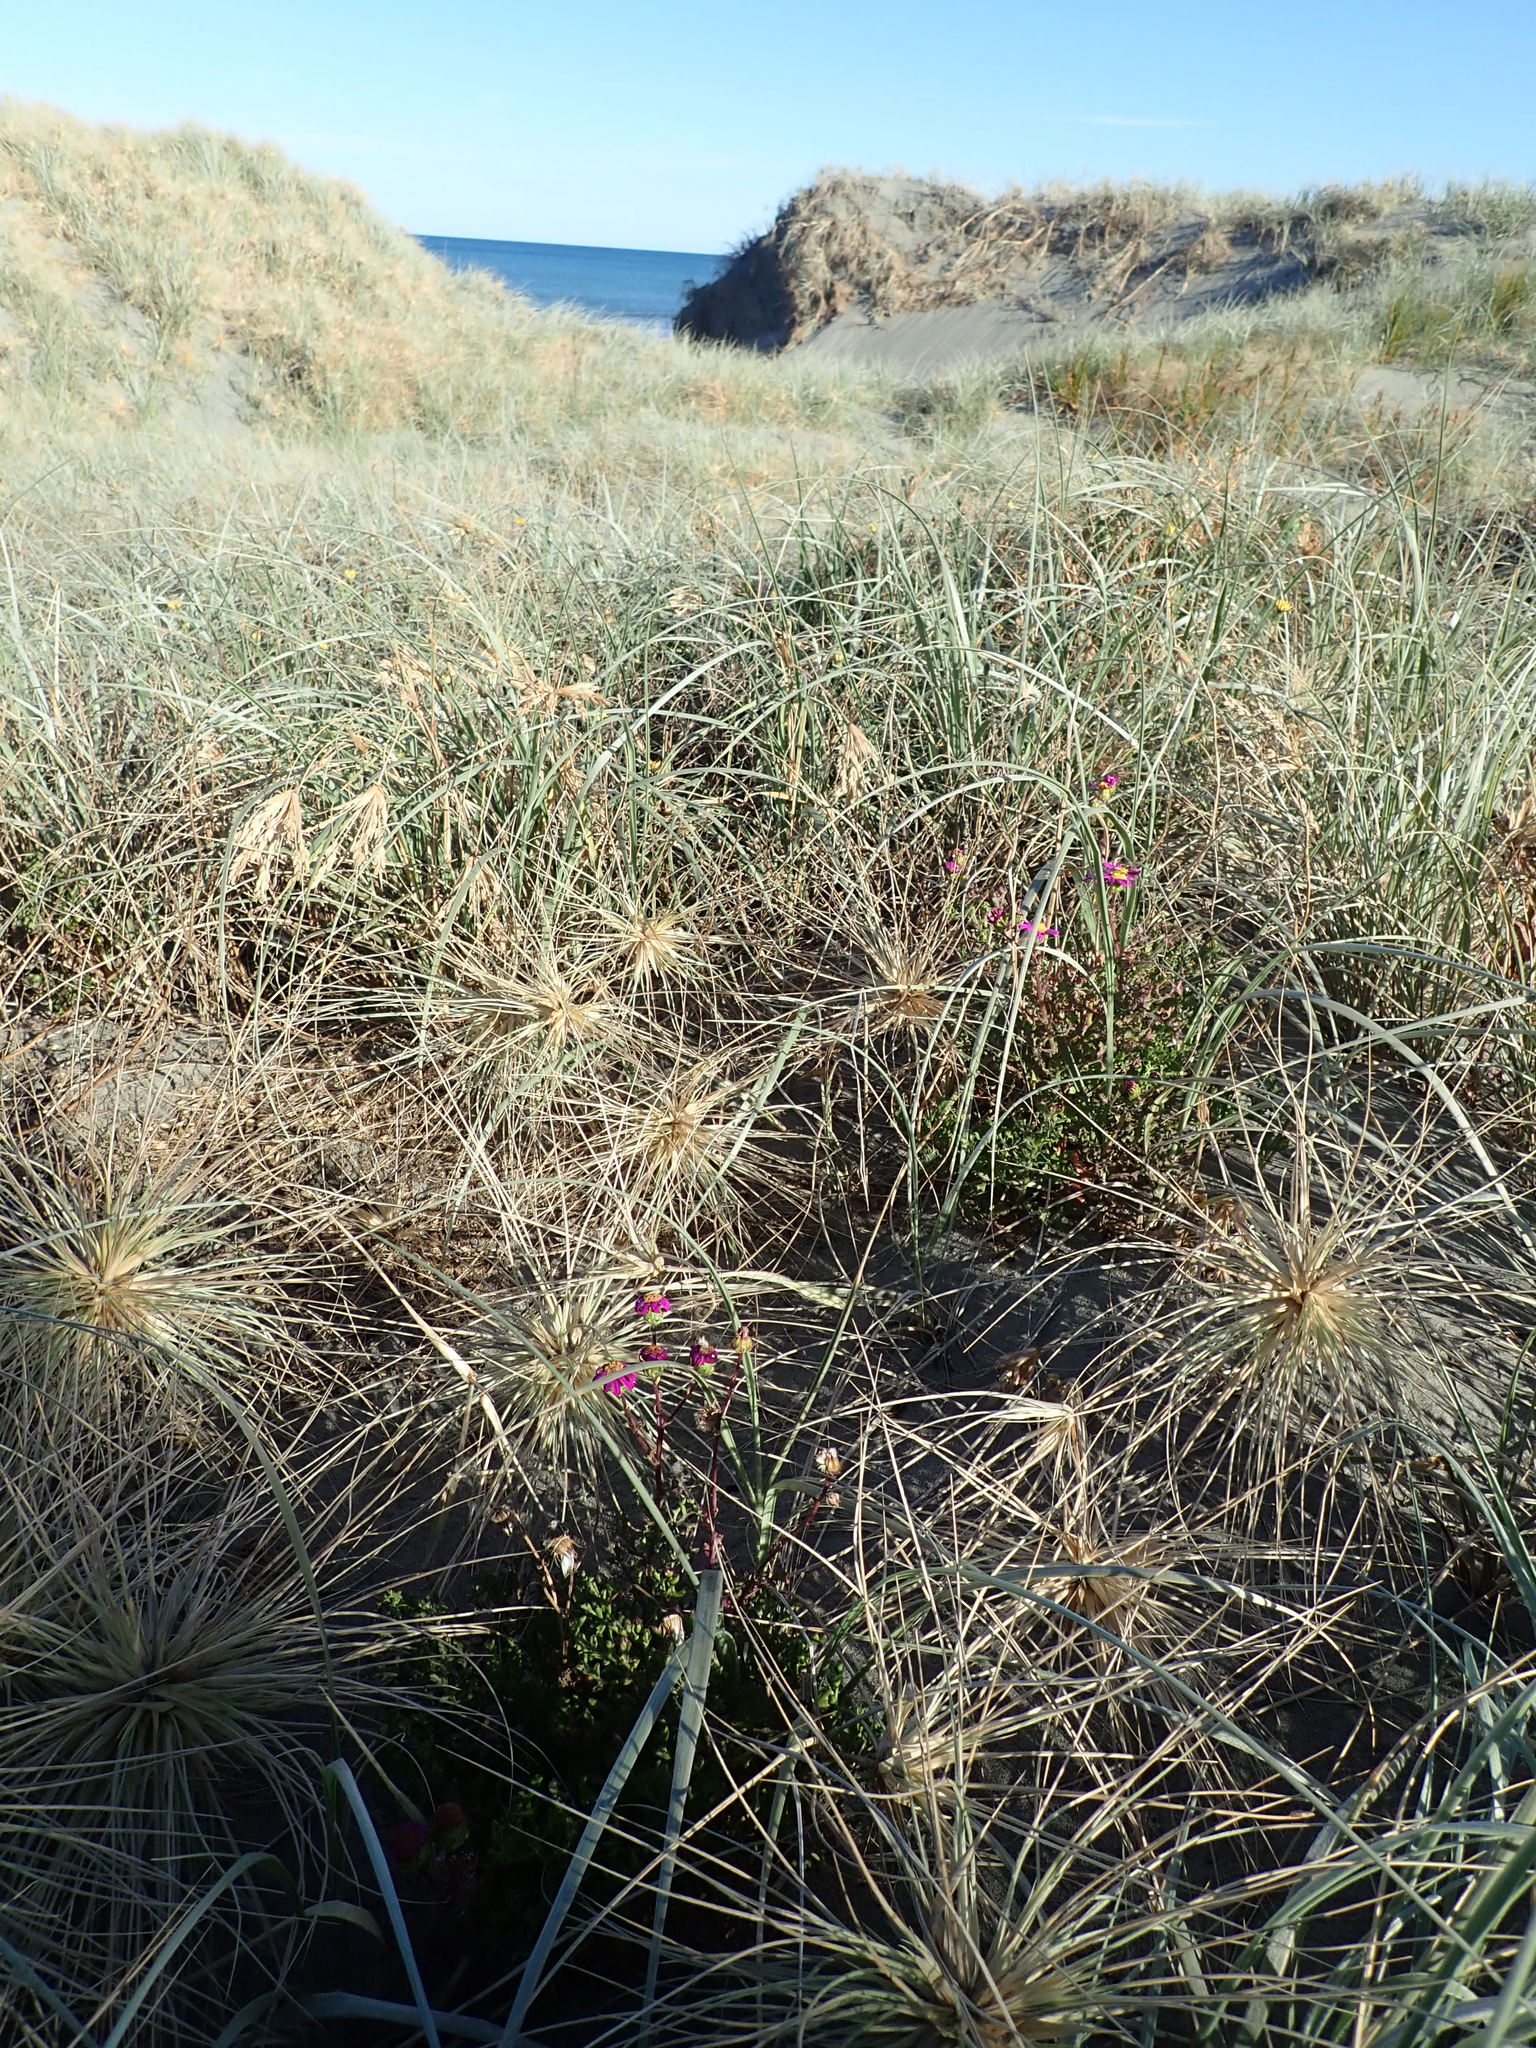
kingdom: Plantae
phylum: Tracheophyta
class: Magnoliopsida
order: Asterales
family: Asteraceae
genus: Senecio
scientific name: Senecio elegans
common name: Purple groundsel
